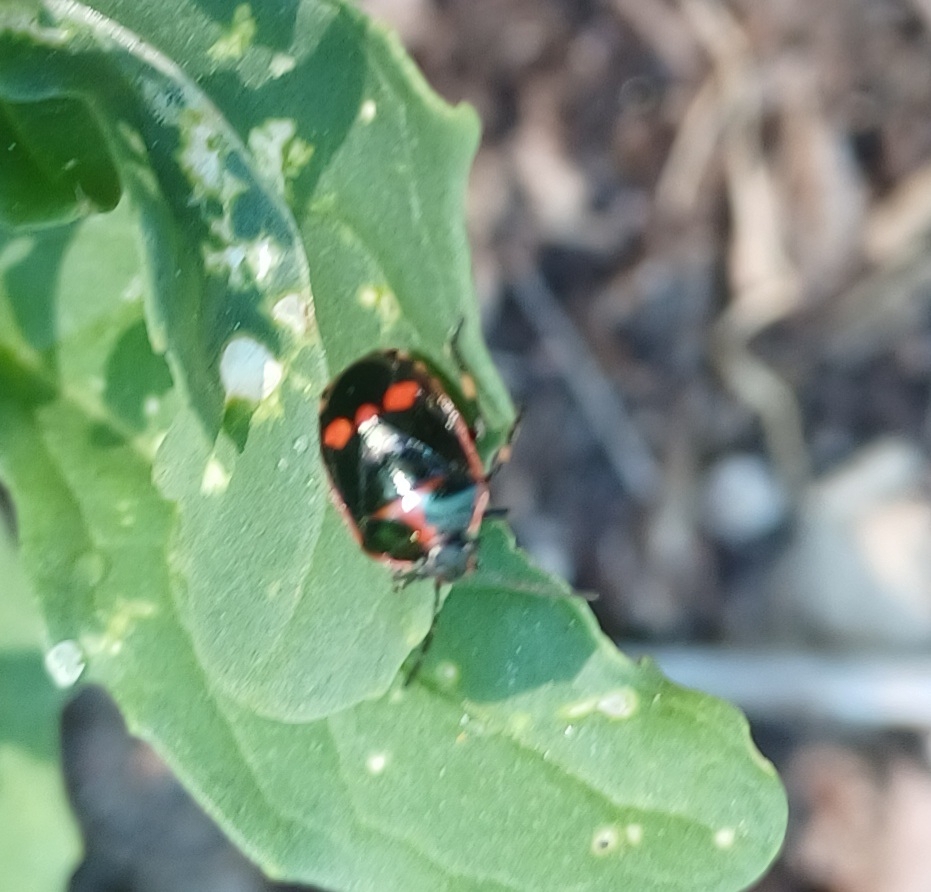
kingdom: Animalia
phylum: Arthropoda
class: Insecta
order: Hemiptera
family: Pentatomidae
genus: Eurydema
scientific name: Eurydema oleracea
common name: Cabbage bug
